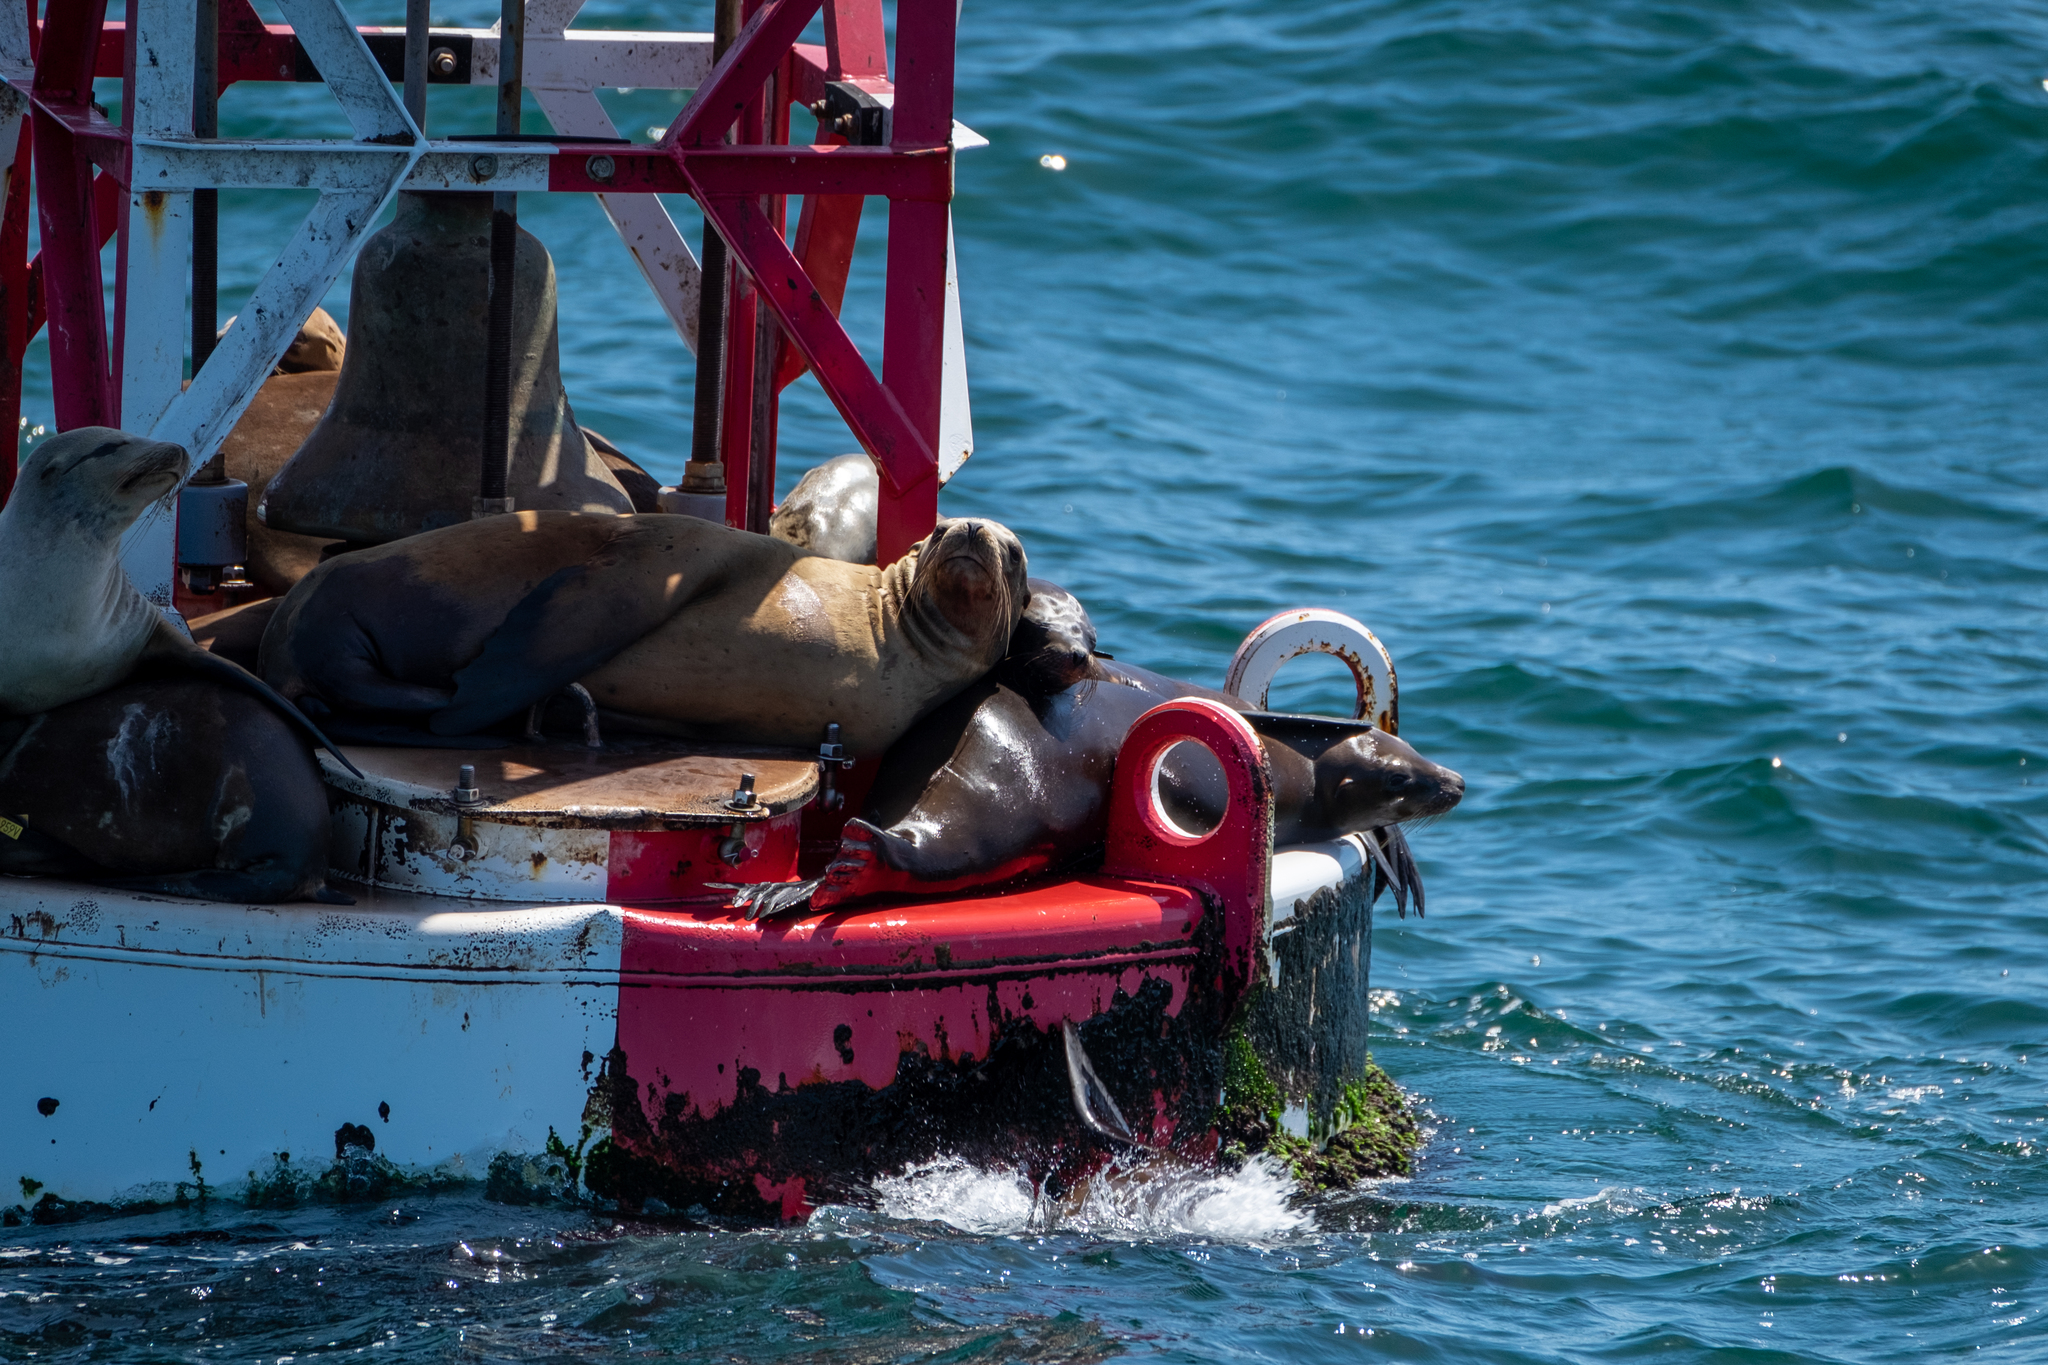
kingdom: Animalia
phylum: Chordata
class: Mammalia
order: Carnivora
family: Otariidae
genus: Zalophus
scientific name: Zalophus californianus
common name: California sea lion
